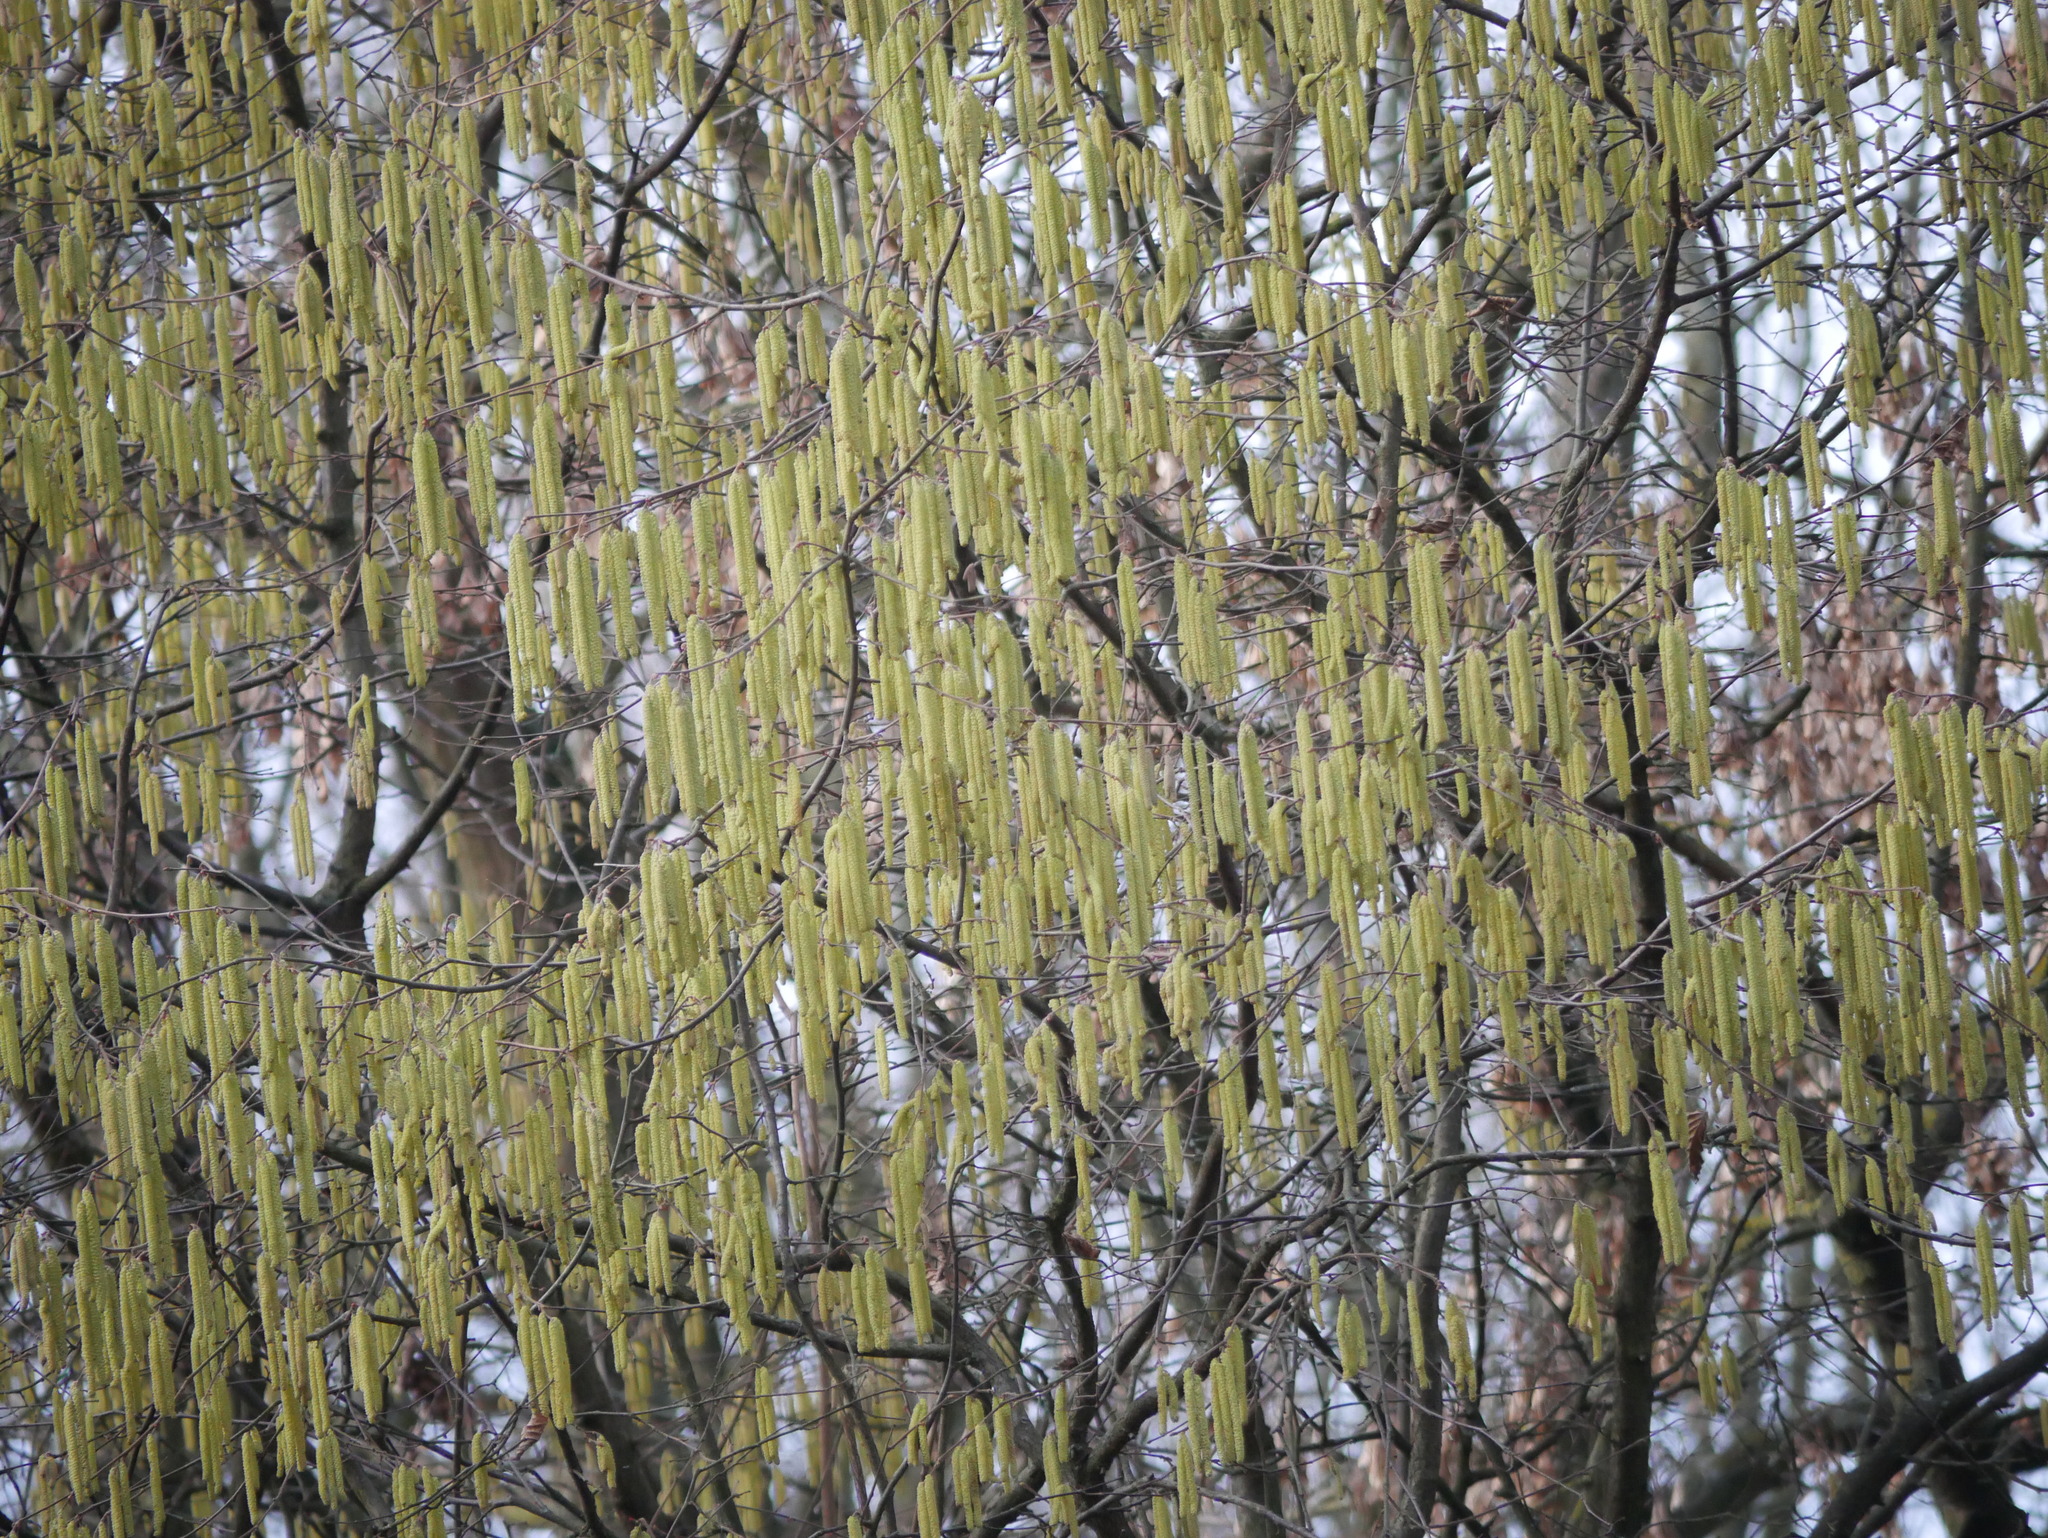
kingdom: Plantae
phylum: Tracheophyta
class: Magnoliopsida
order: Fagales
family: Betulaceae
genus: Corylus
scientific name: Corylus avellana
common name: European hazel
